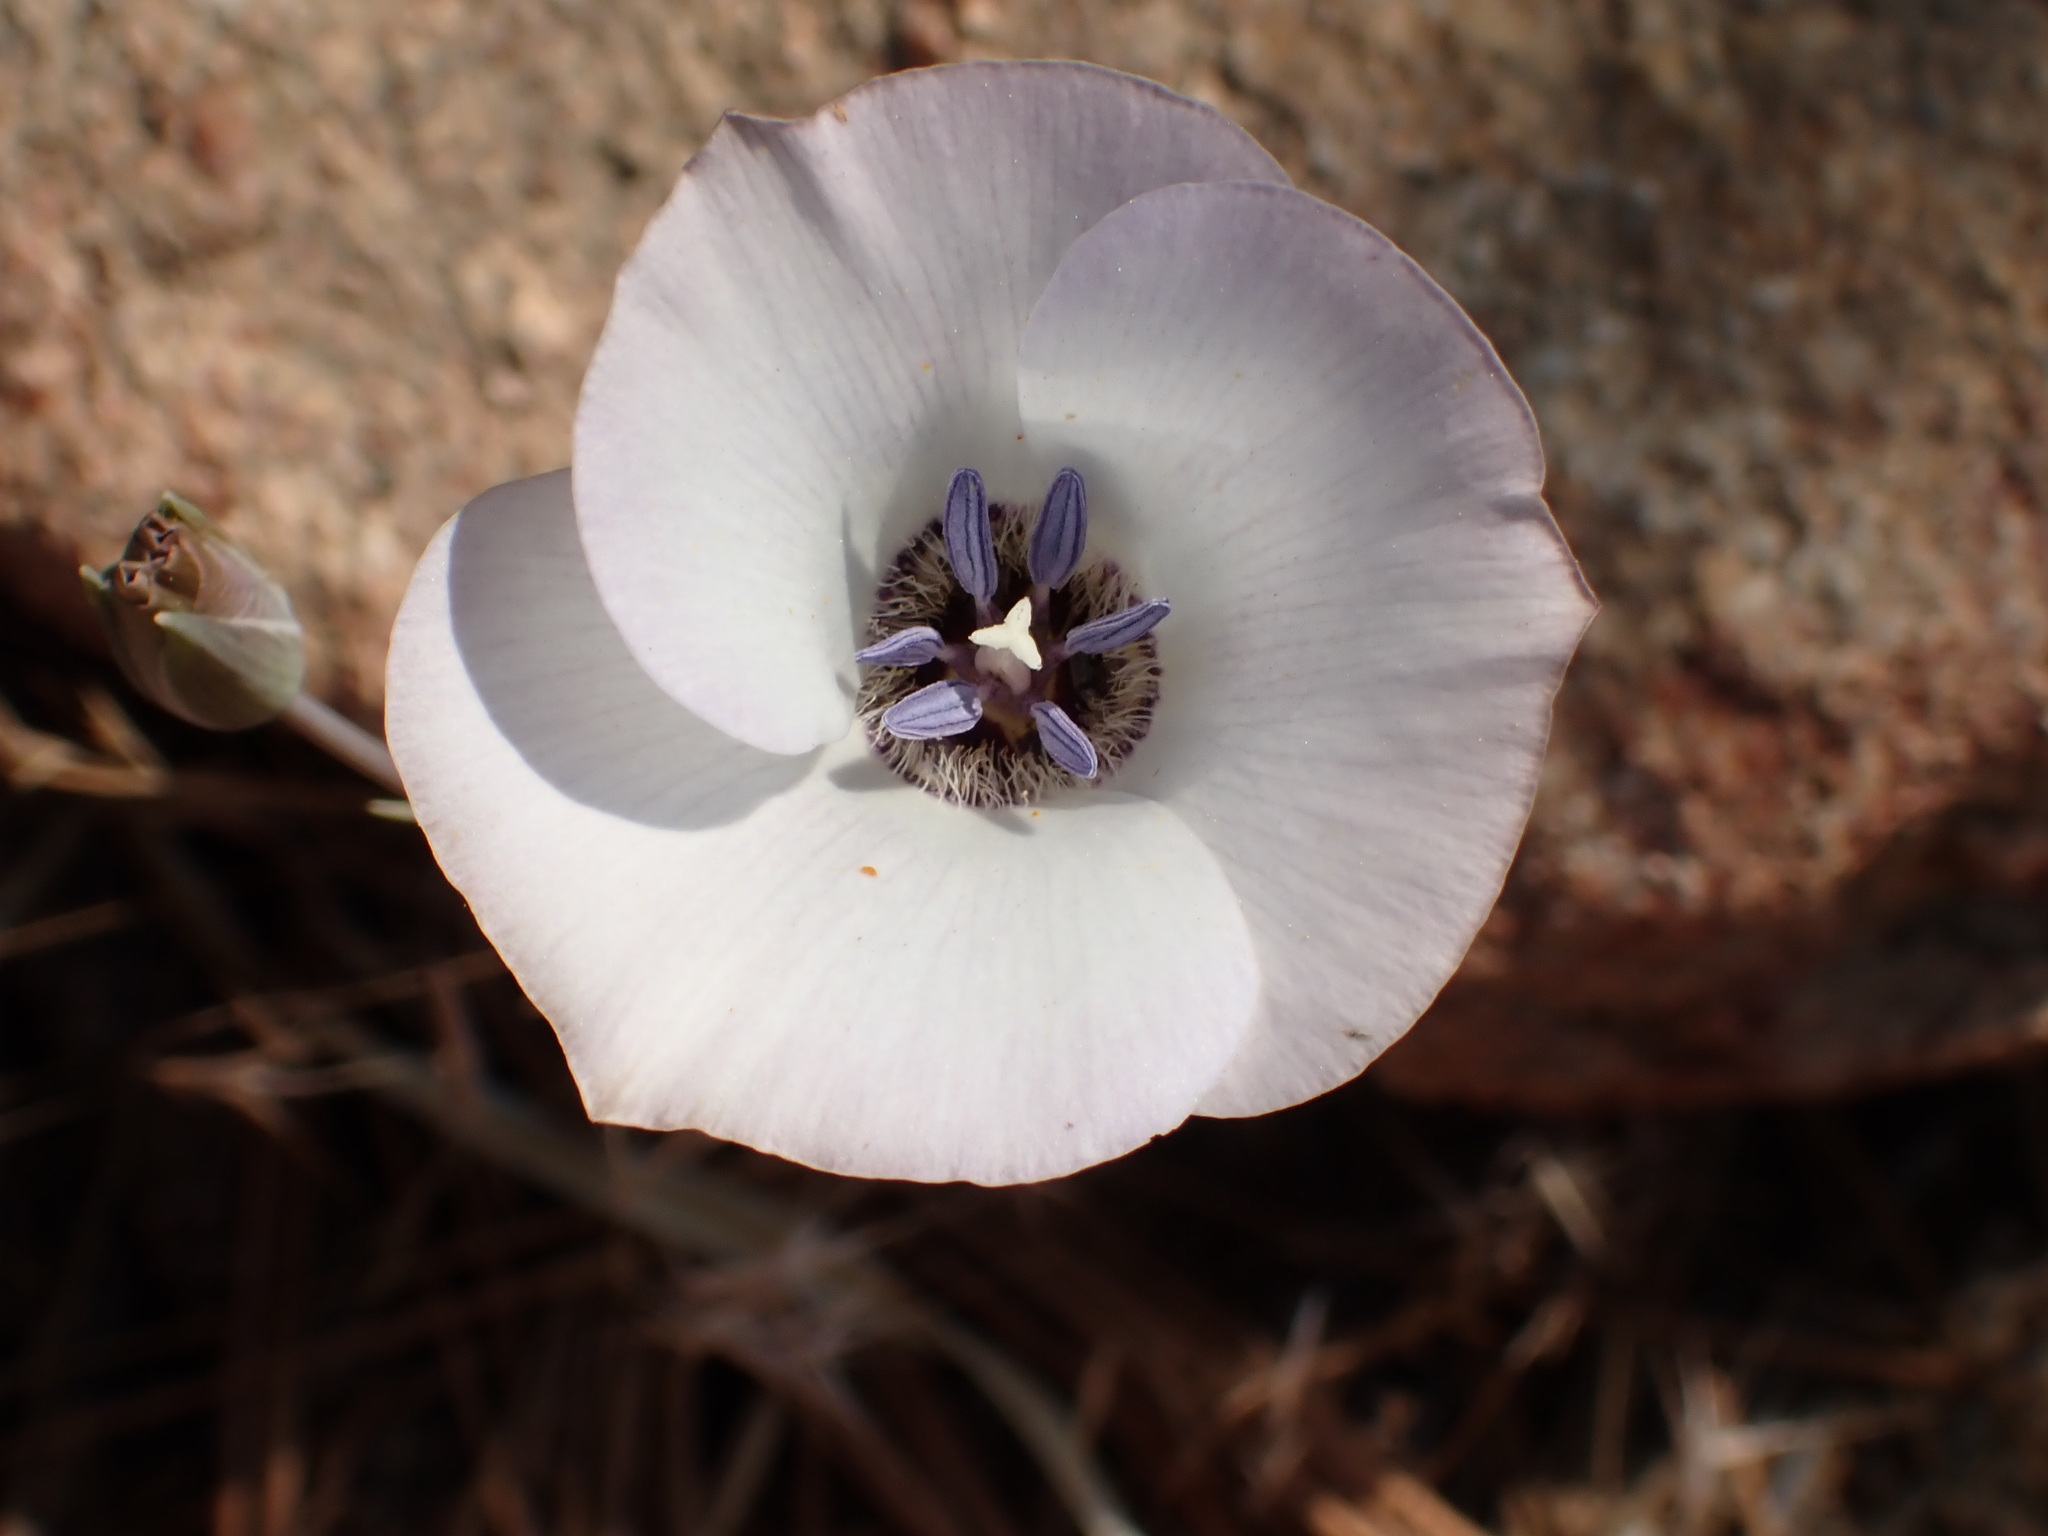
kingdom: Plantae
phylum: Tracheophyta
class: Liliopsida
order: Liliales
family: Liliaceae
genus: Calochortus
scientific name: Calochortus invenustus
